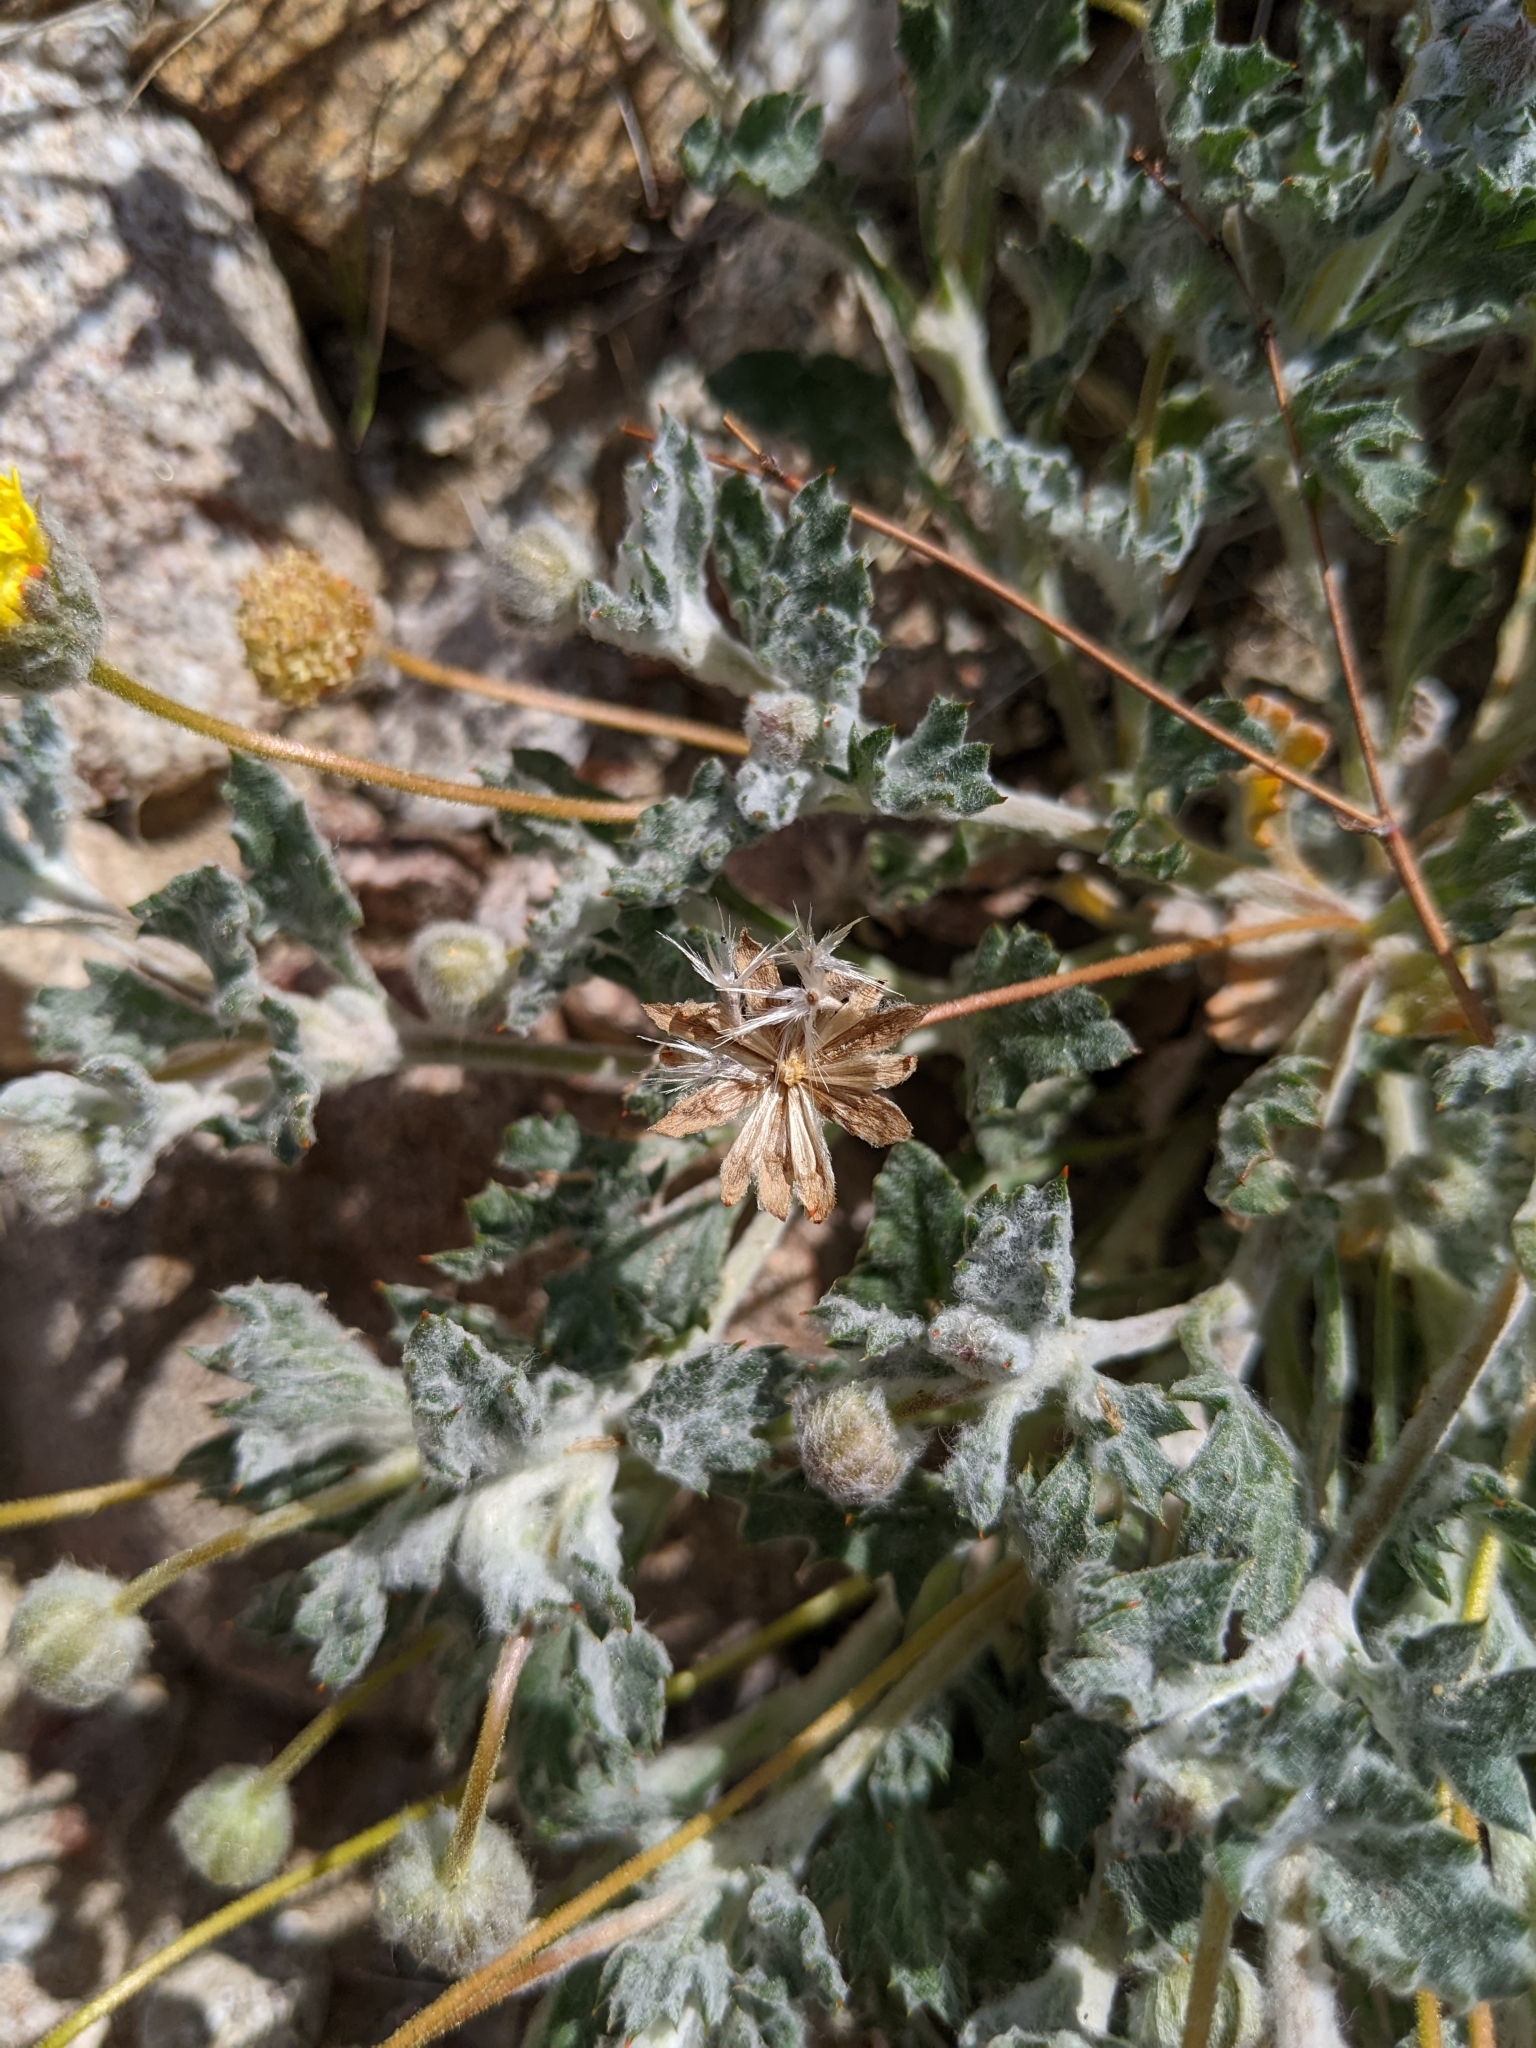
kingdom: Plantae
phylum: Tracheophyta
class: Magnoliopsida
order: Asterales
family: Asteraceae
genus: Trichoptilium
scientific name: Trichoptilium incisum
